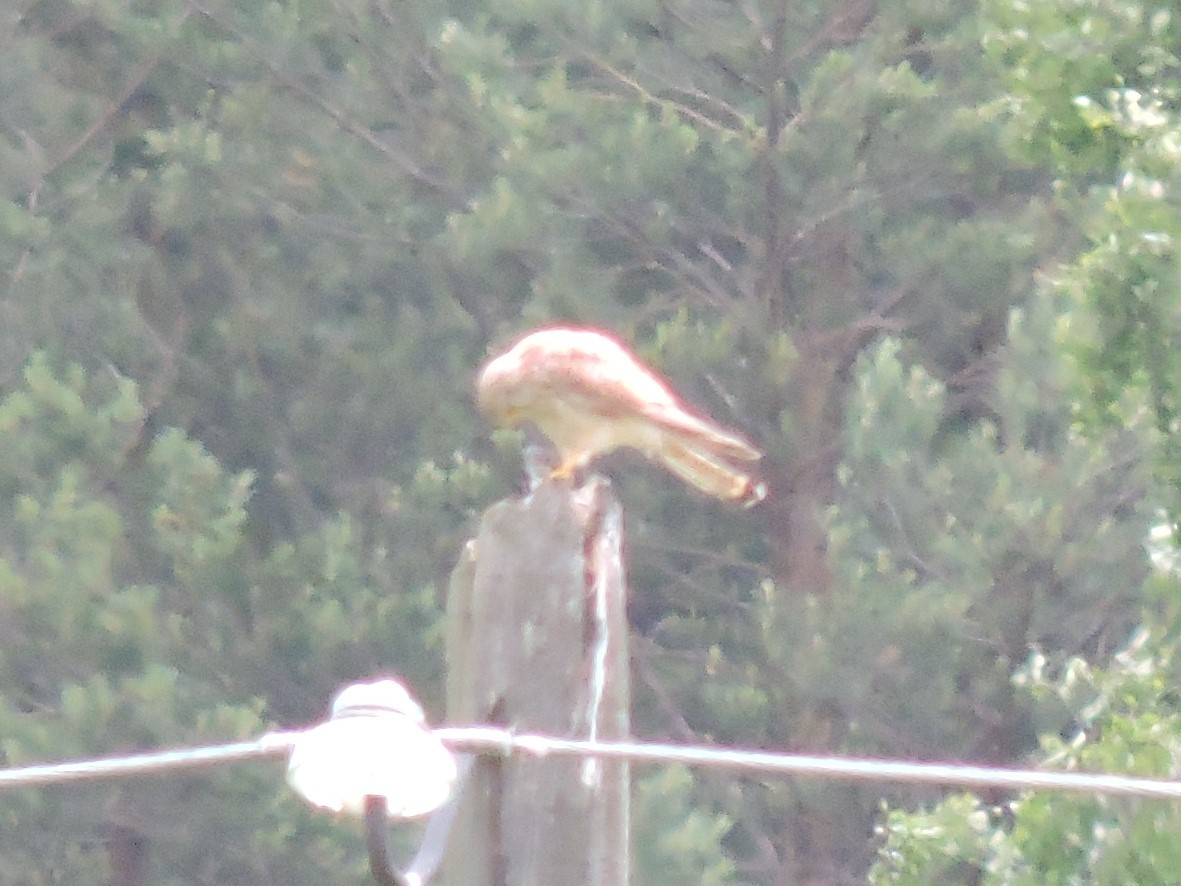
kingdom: Animalia
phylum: Chordata
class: Aves
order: Falconiformes
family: Falconidae
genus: Falco
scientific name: Falco tinnunculus
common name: Common kestrel
